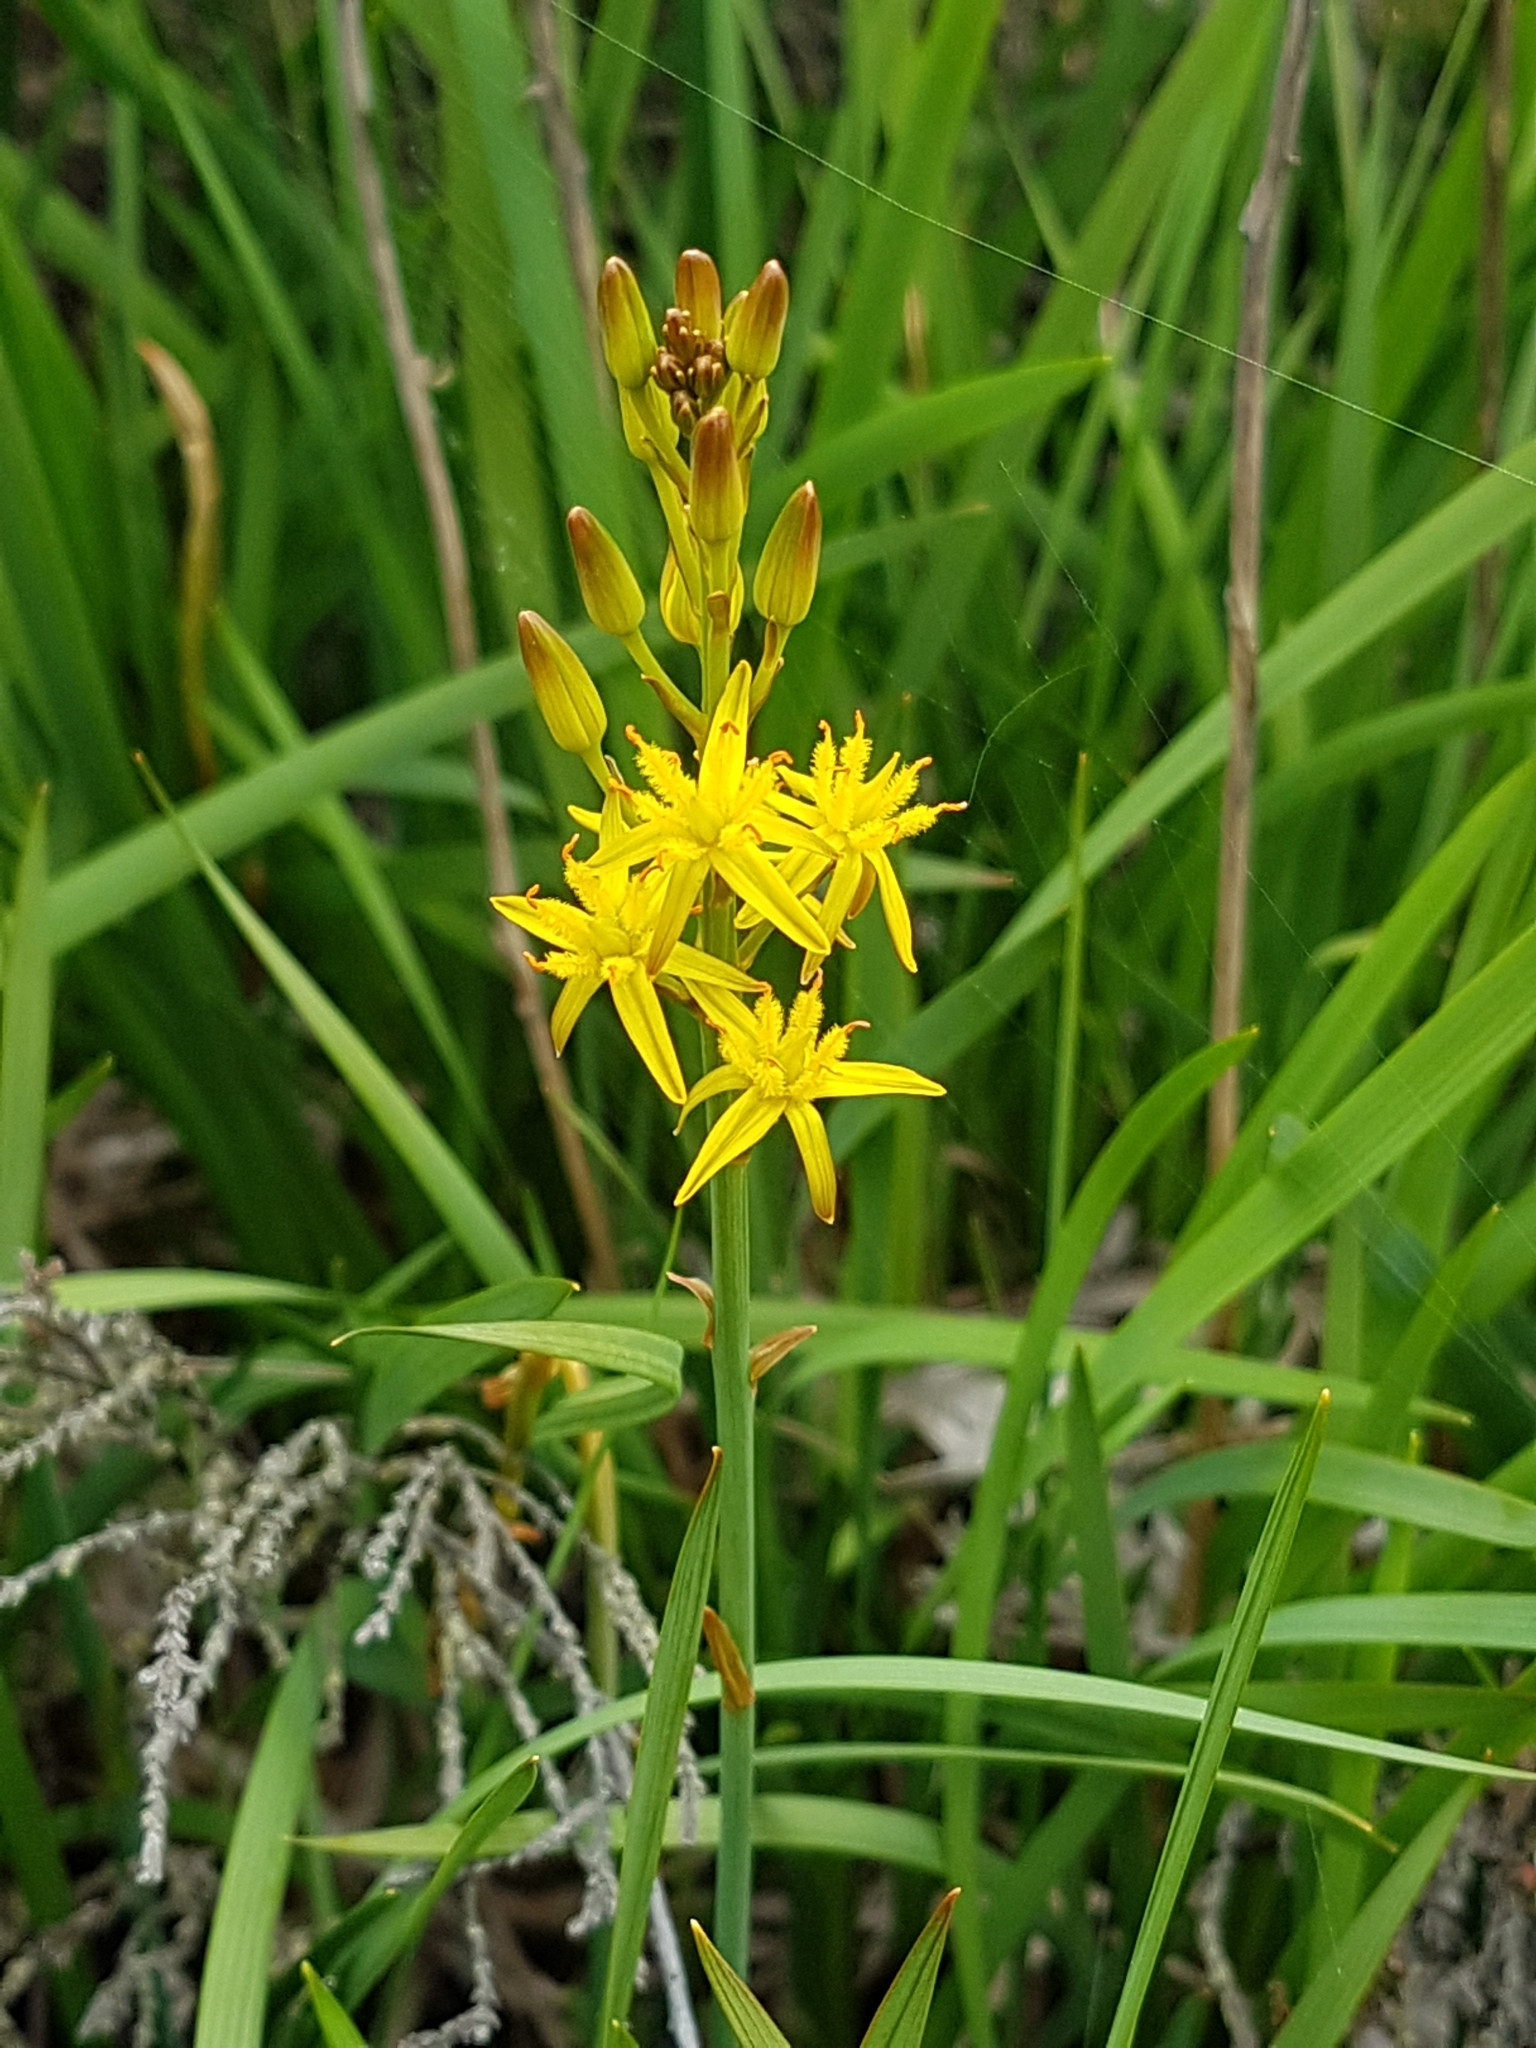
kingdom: Plantae
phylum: Tracheophyta
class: Liliopsida
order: Dioscoreales
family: Nartheciaceae
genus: Narthecium
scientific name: Narthecium ossifragum
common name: Bog asphodel
